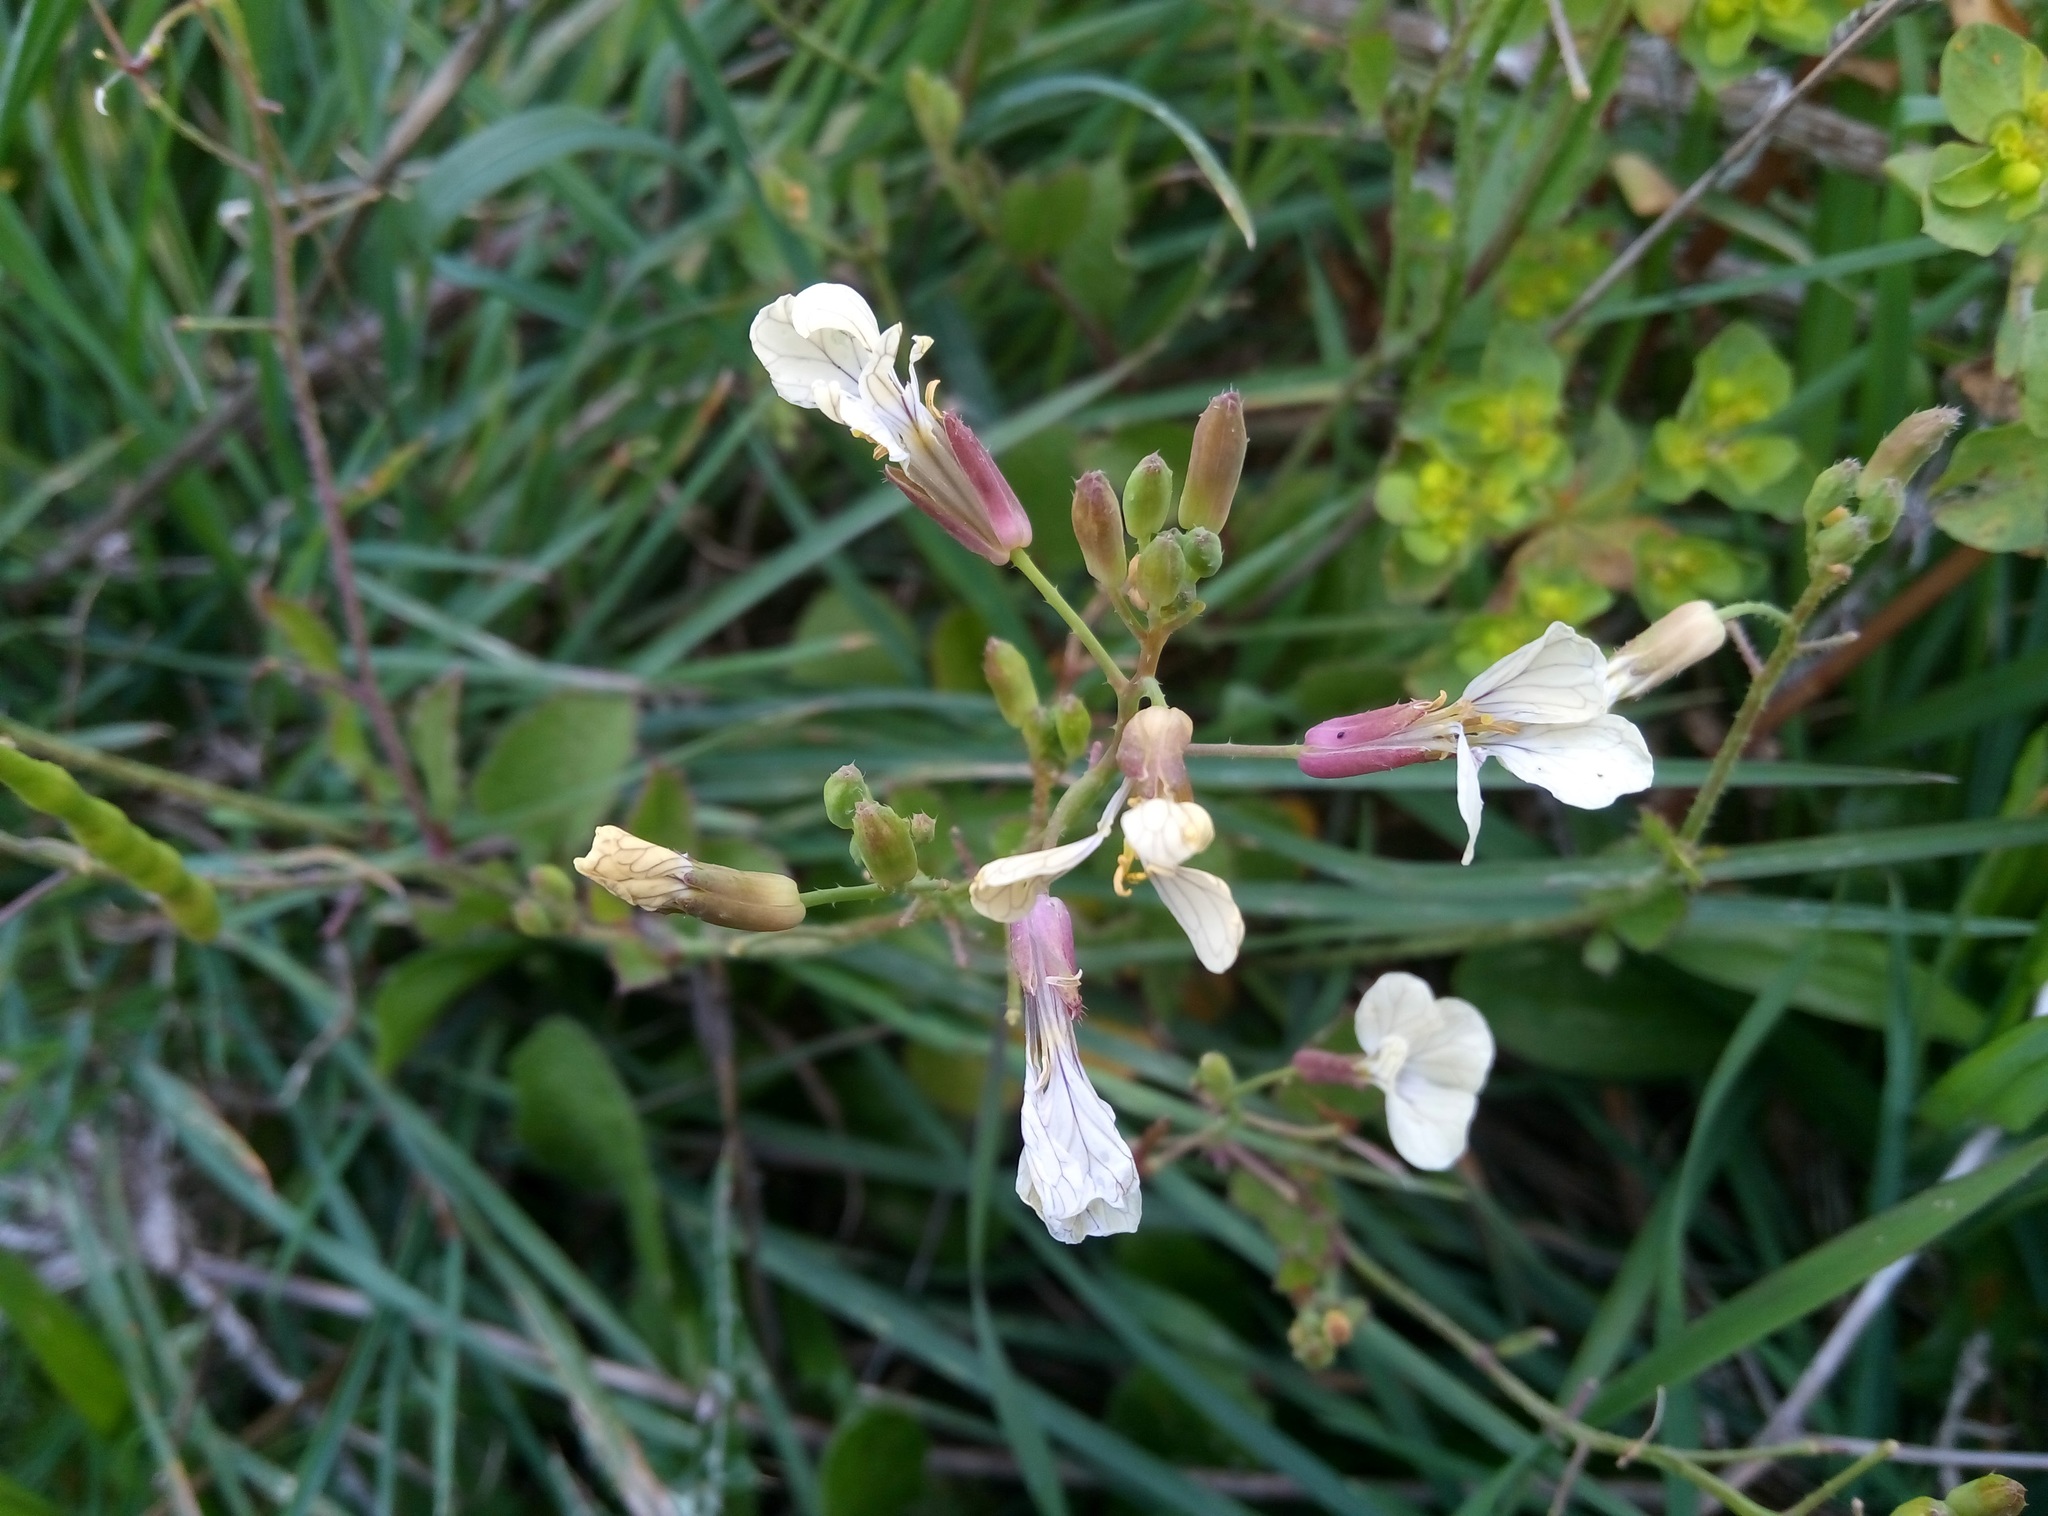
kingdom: Plantae
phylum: Tracheophyta
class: Magnoliopsida
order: Brassicales
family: Brassicaceae
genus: Eruca
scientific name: Eruca vesicaria
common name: Garden rocket
